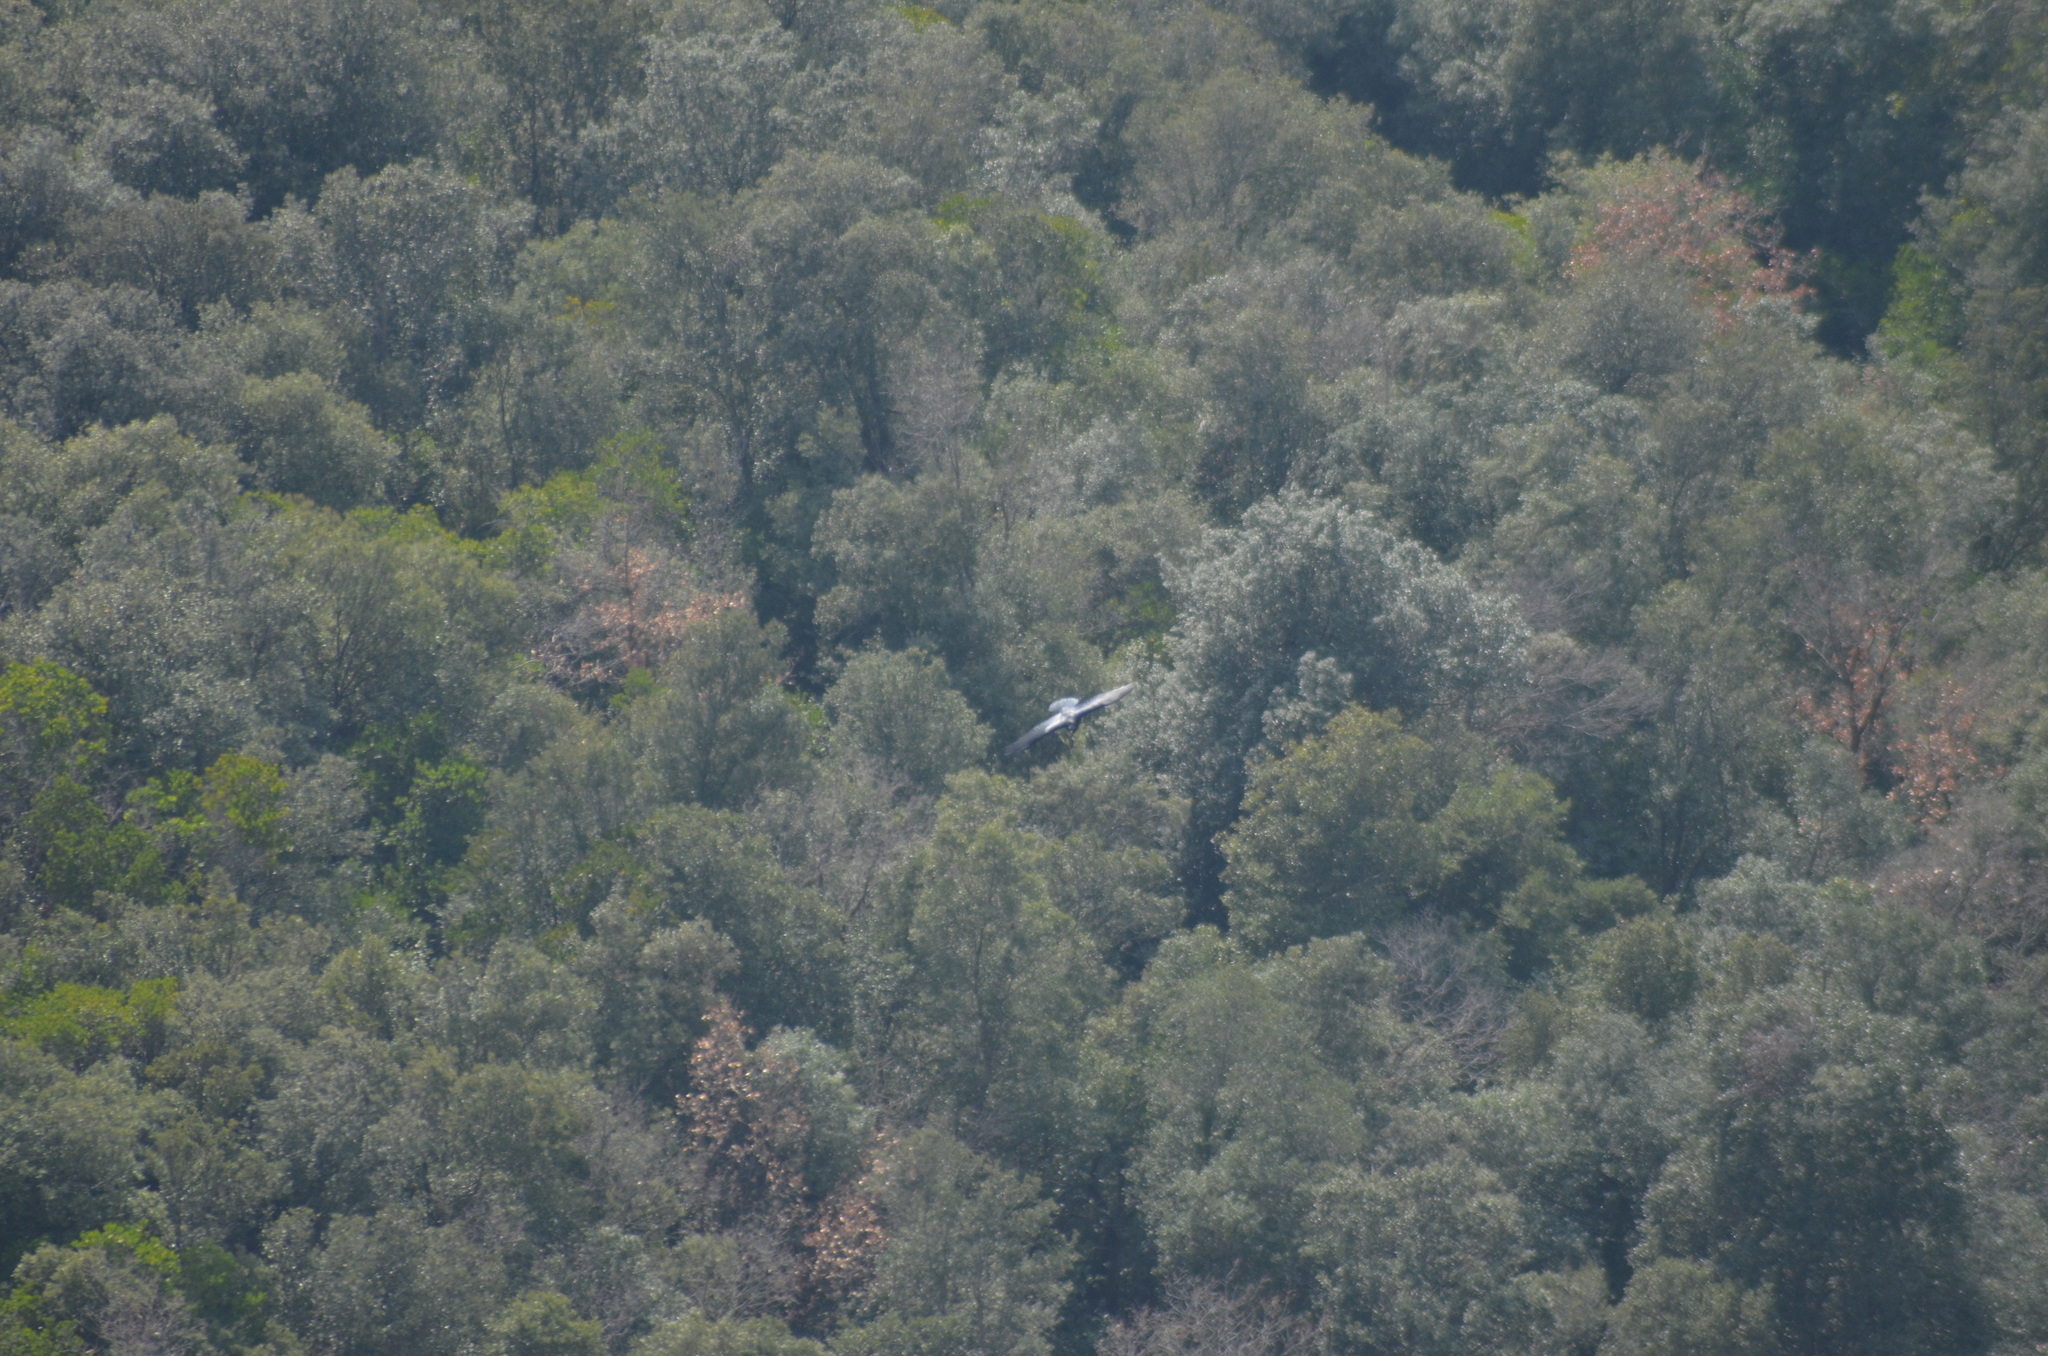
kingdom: Animalia
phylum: Chordata
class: Aves
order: Passeriformes
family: Corvidae
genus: Corvus
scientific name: Corvus corax
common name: Common raven
